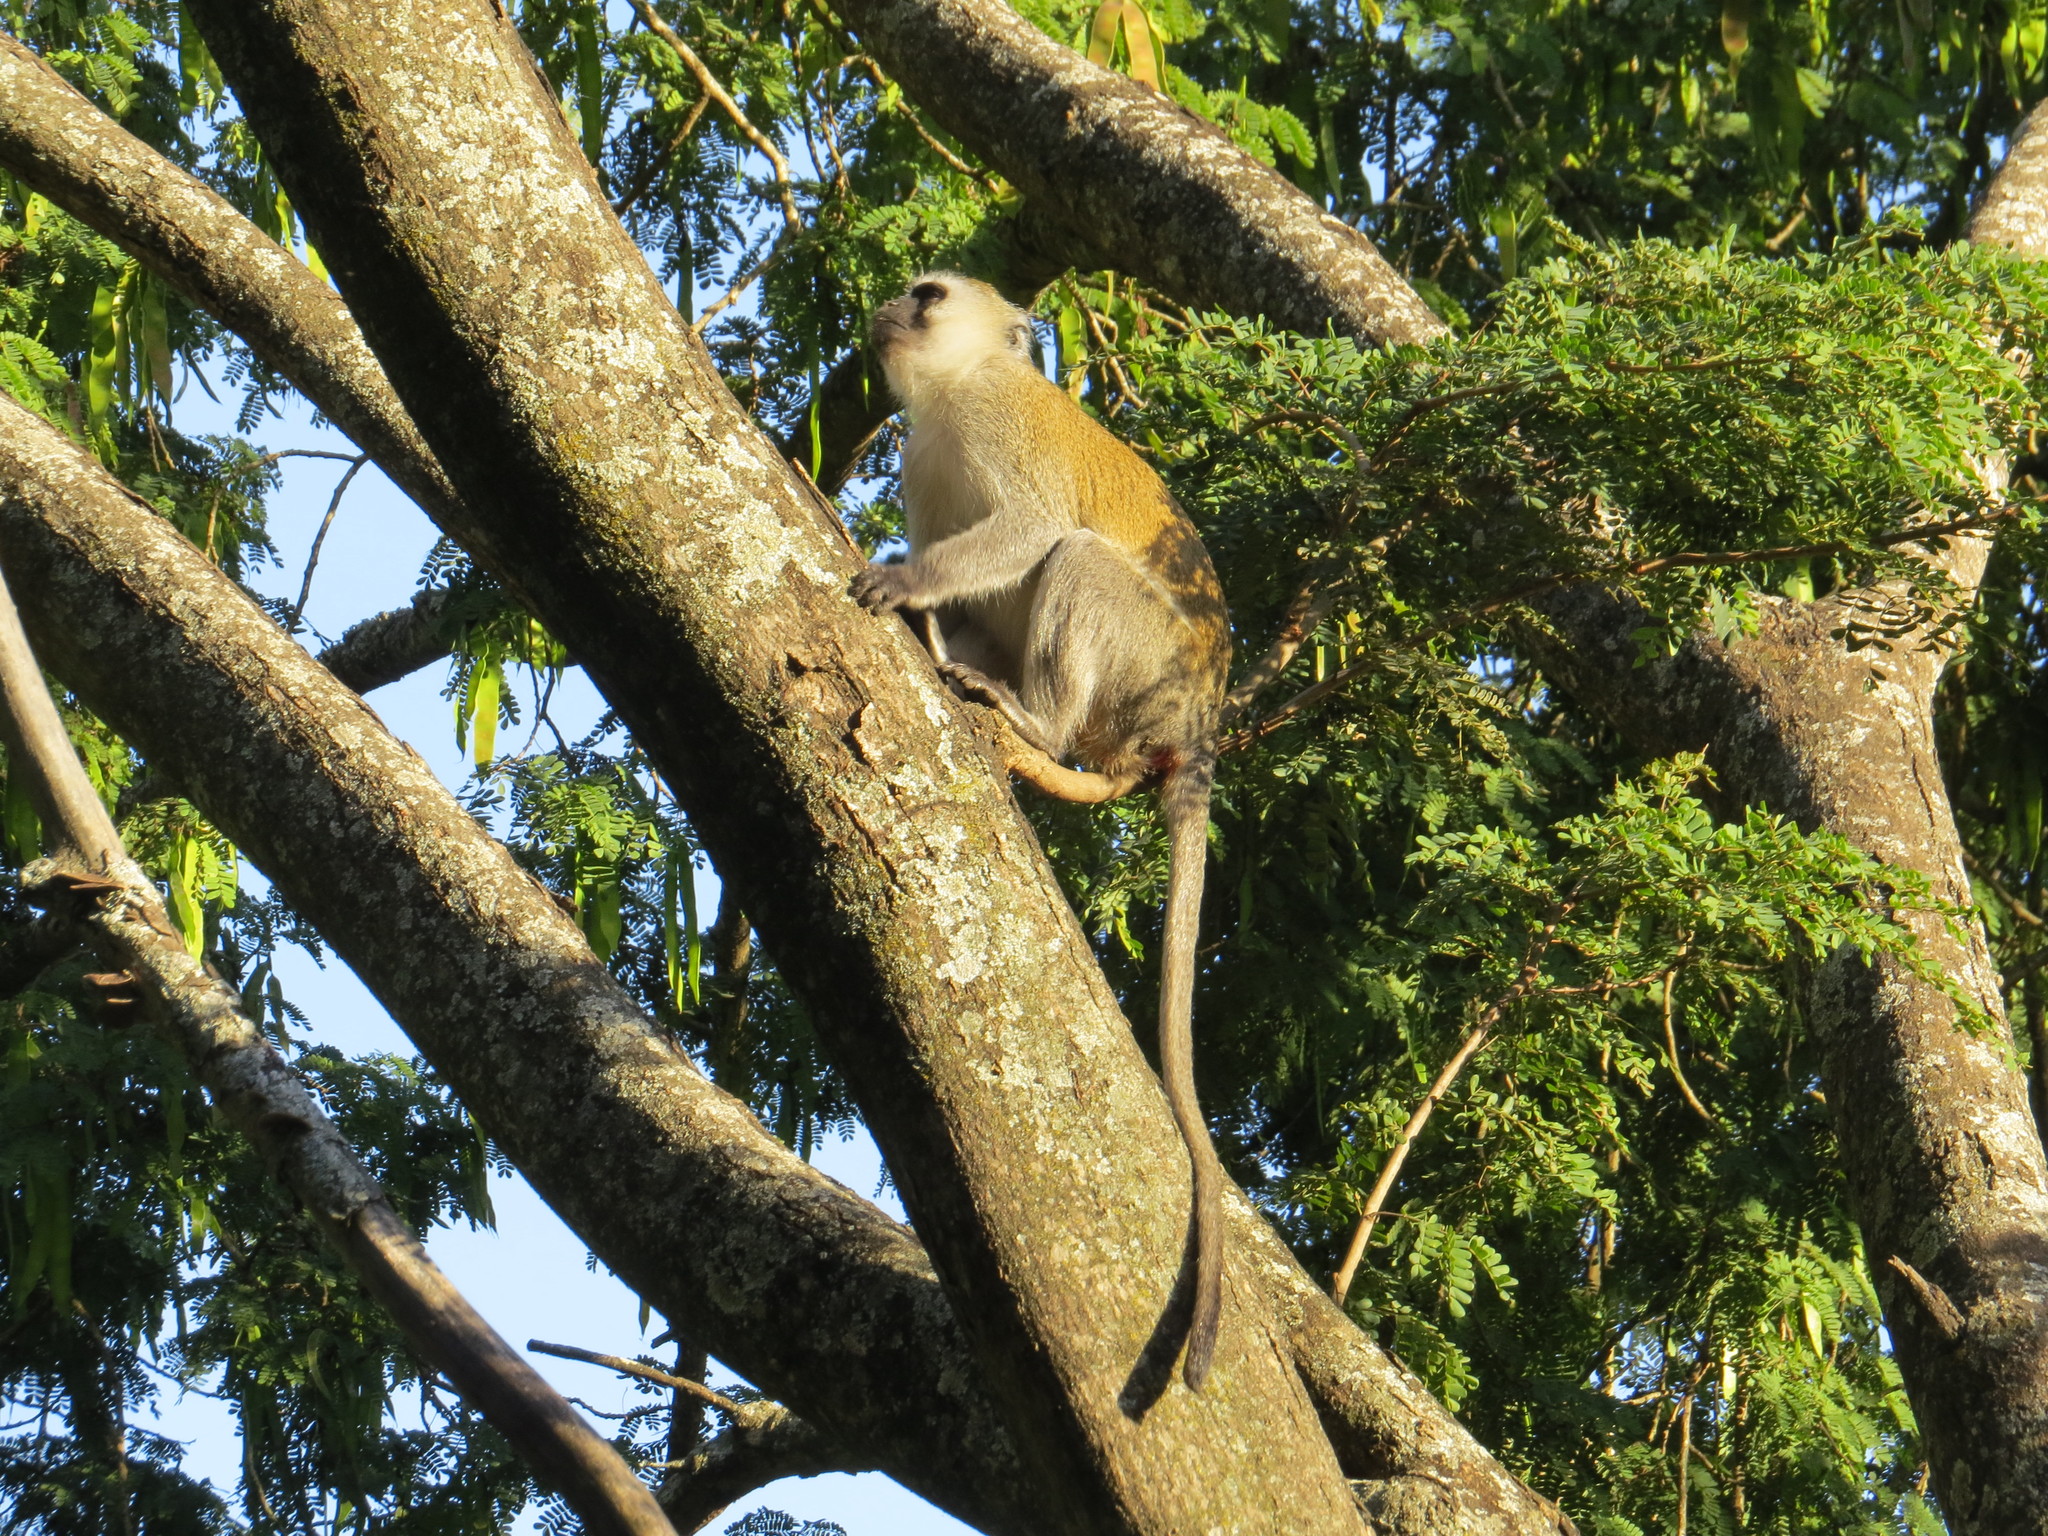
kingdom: Animalia
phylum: Chordata
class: Mammalia
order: Primates
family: Cercopithecidae
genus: Chlorocebus
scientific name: Chlorocebus pygerythrus
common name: Vervet monkey
